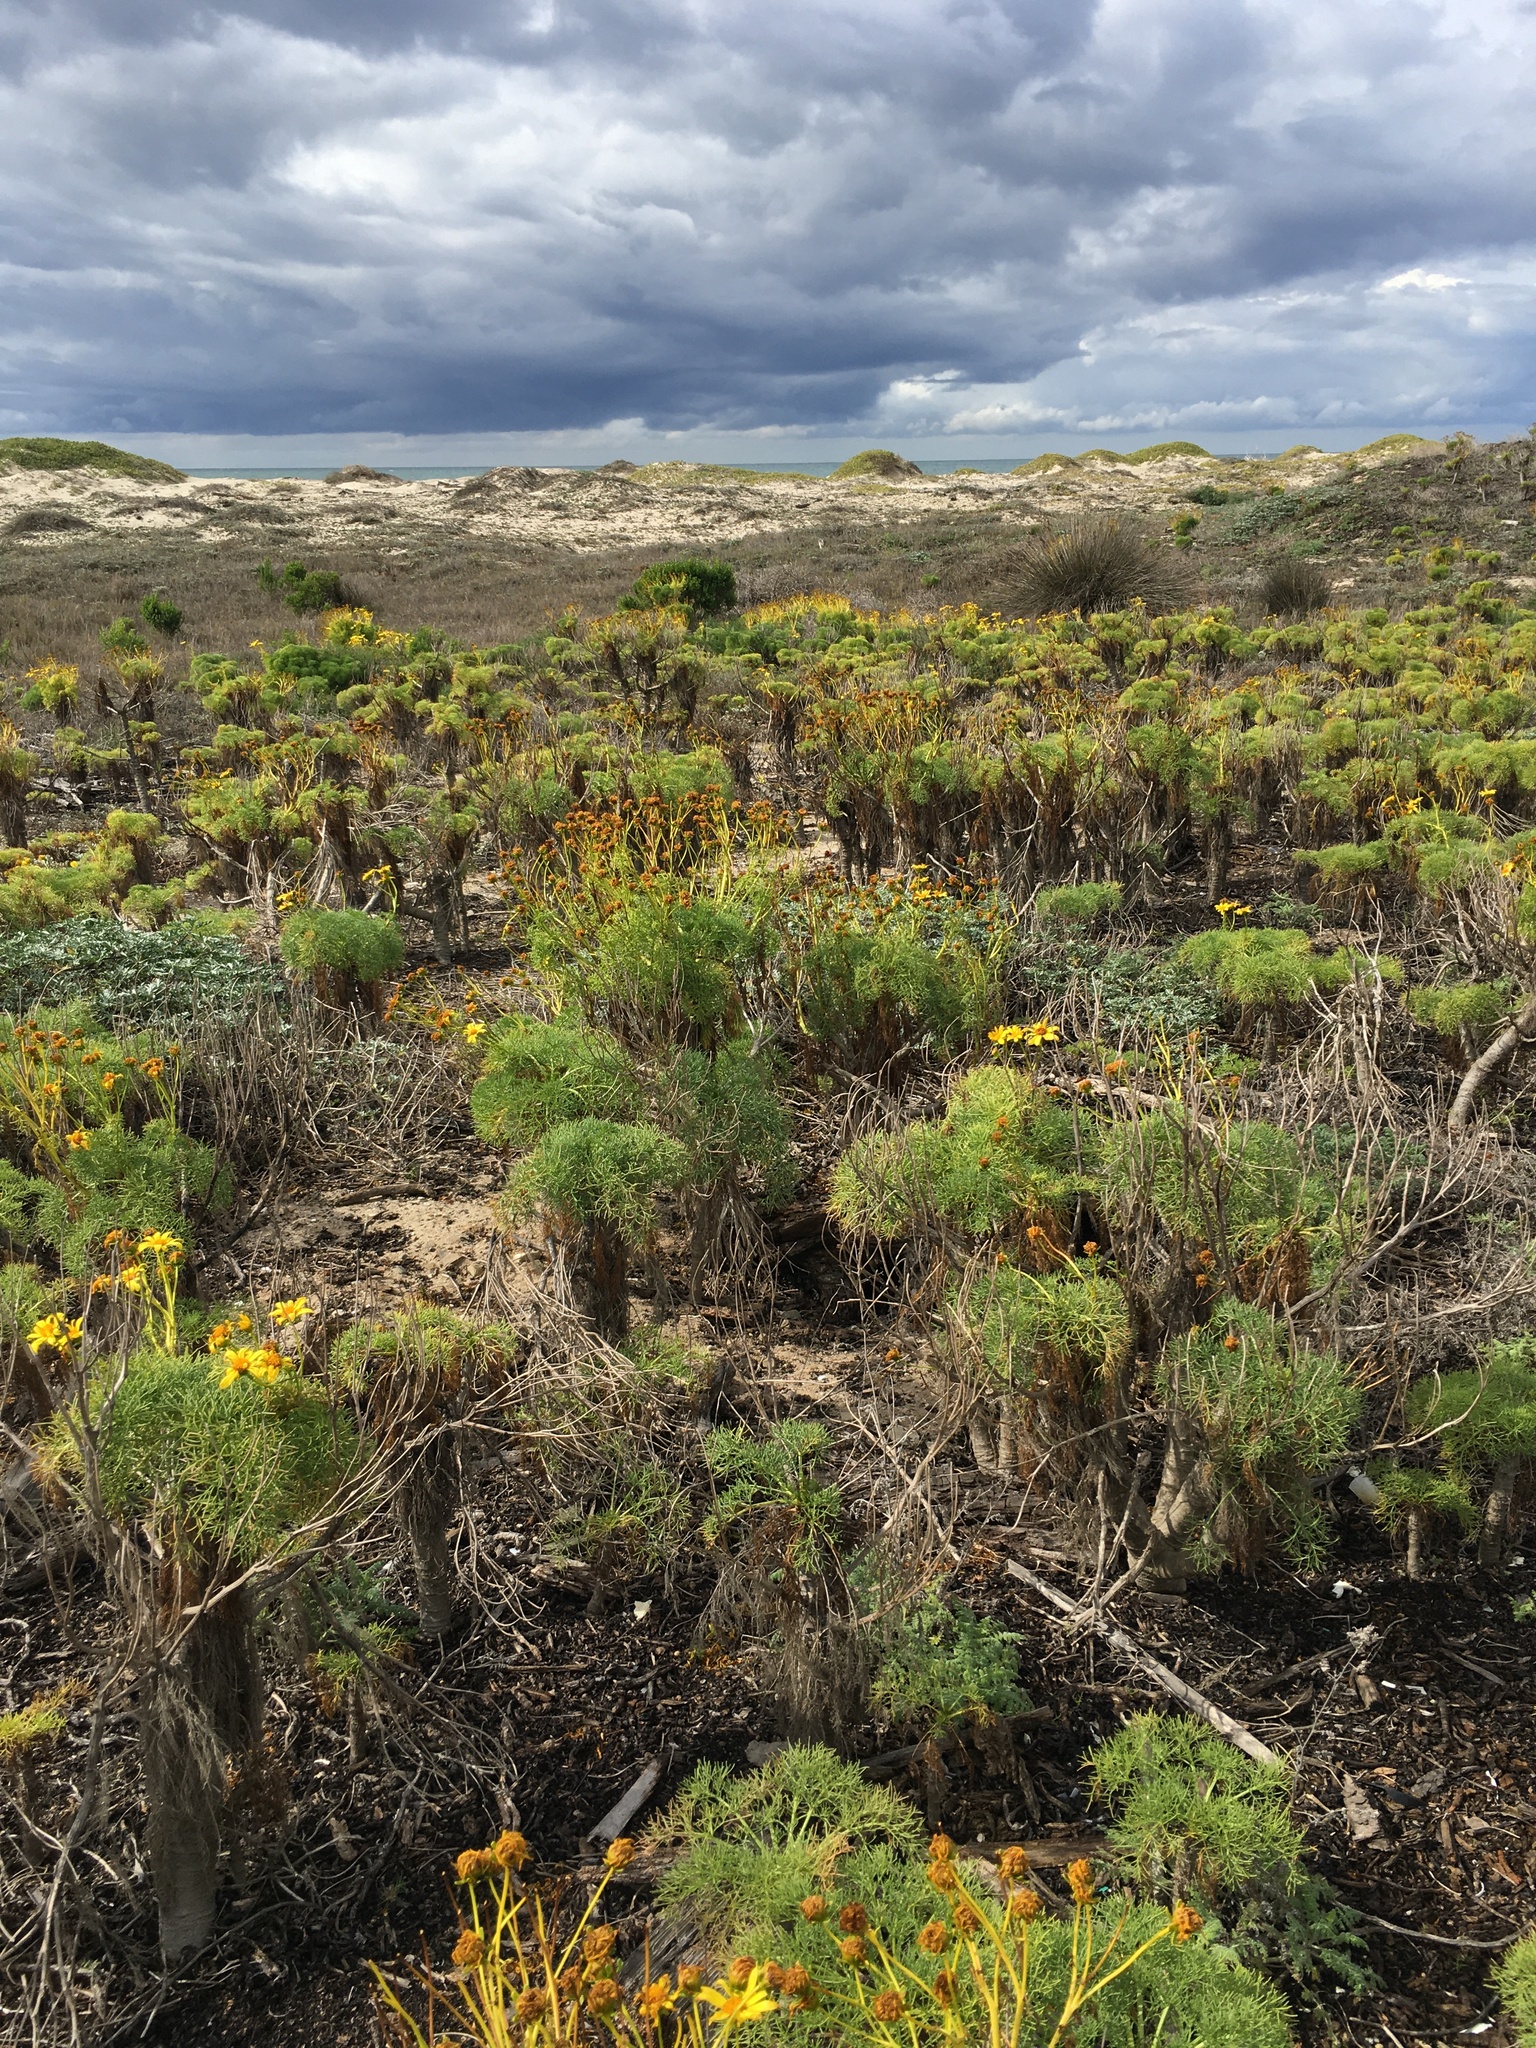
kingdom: Plantae
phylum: Tracheophyta
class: Magnoliopsida
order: Asterales
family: Asteraceae
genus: Coreopsis
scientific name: Coreopsis gigantea
